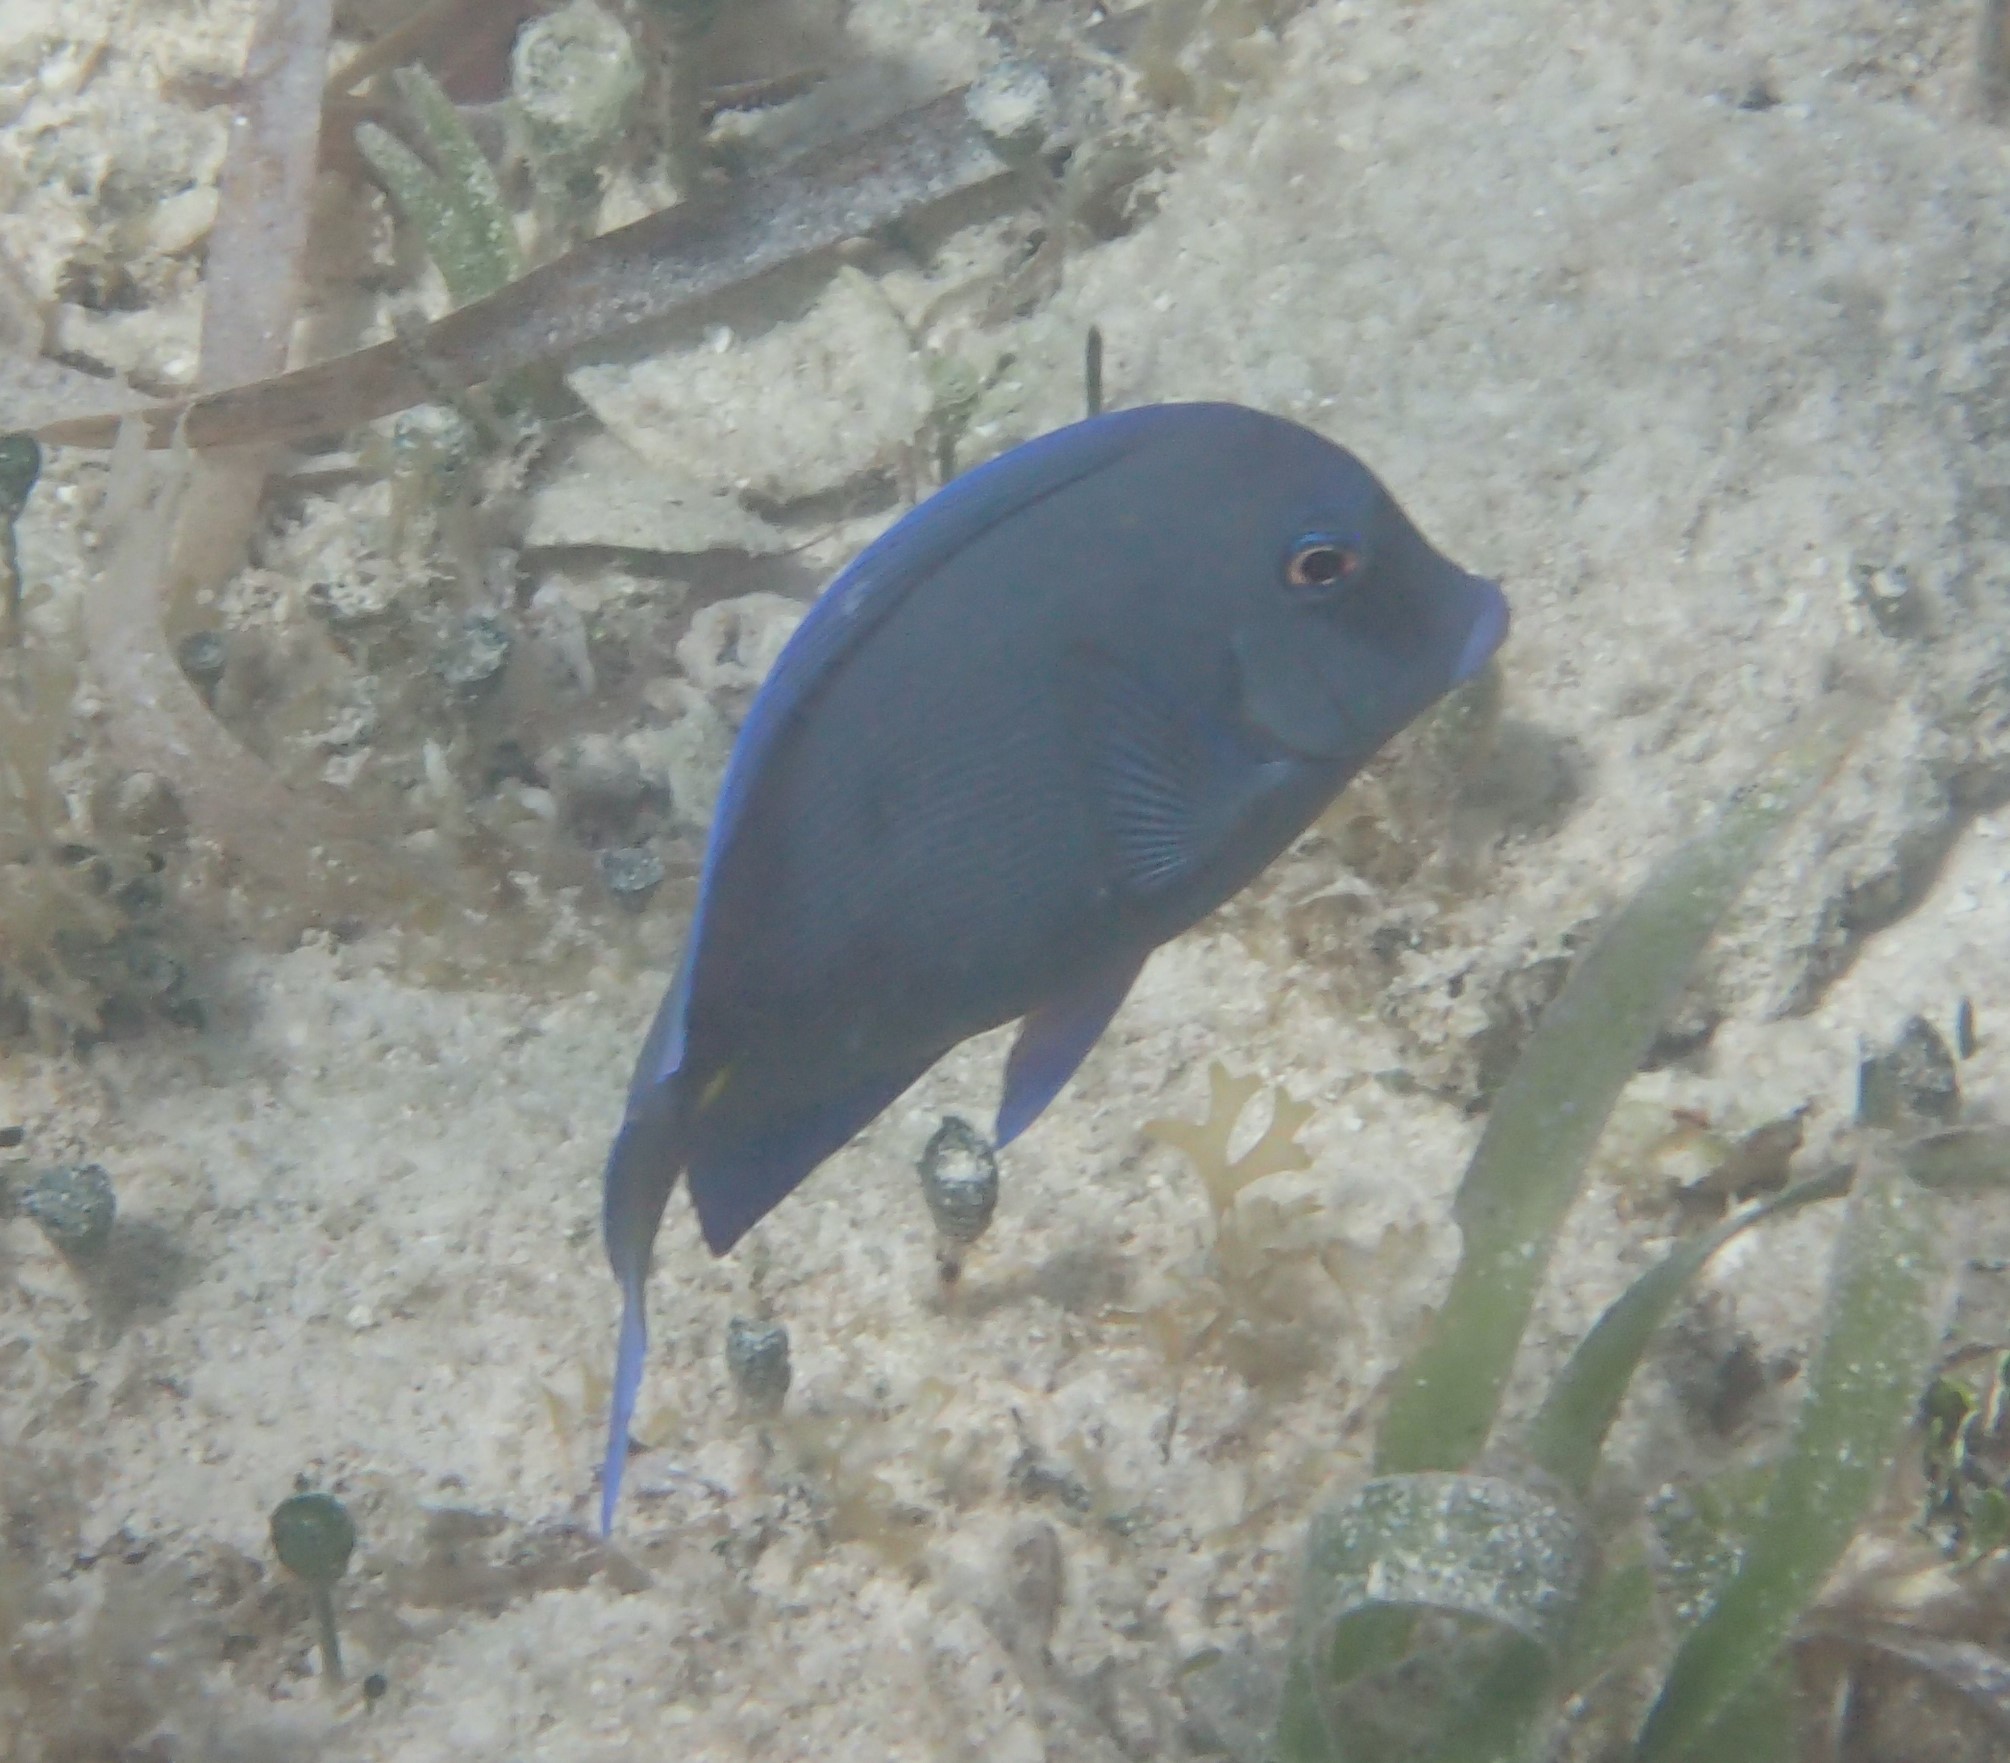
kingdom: Animalia
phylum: Chordata
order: Perciformes
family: Acanthuridae
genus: Acanthurus
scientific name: Acanthurus coeruleus
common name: Blue tang
